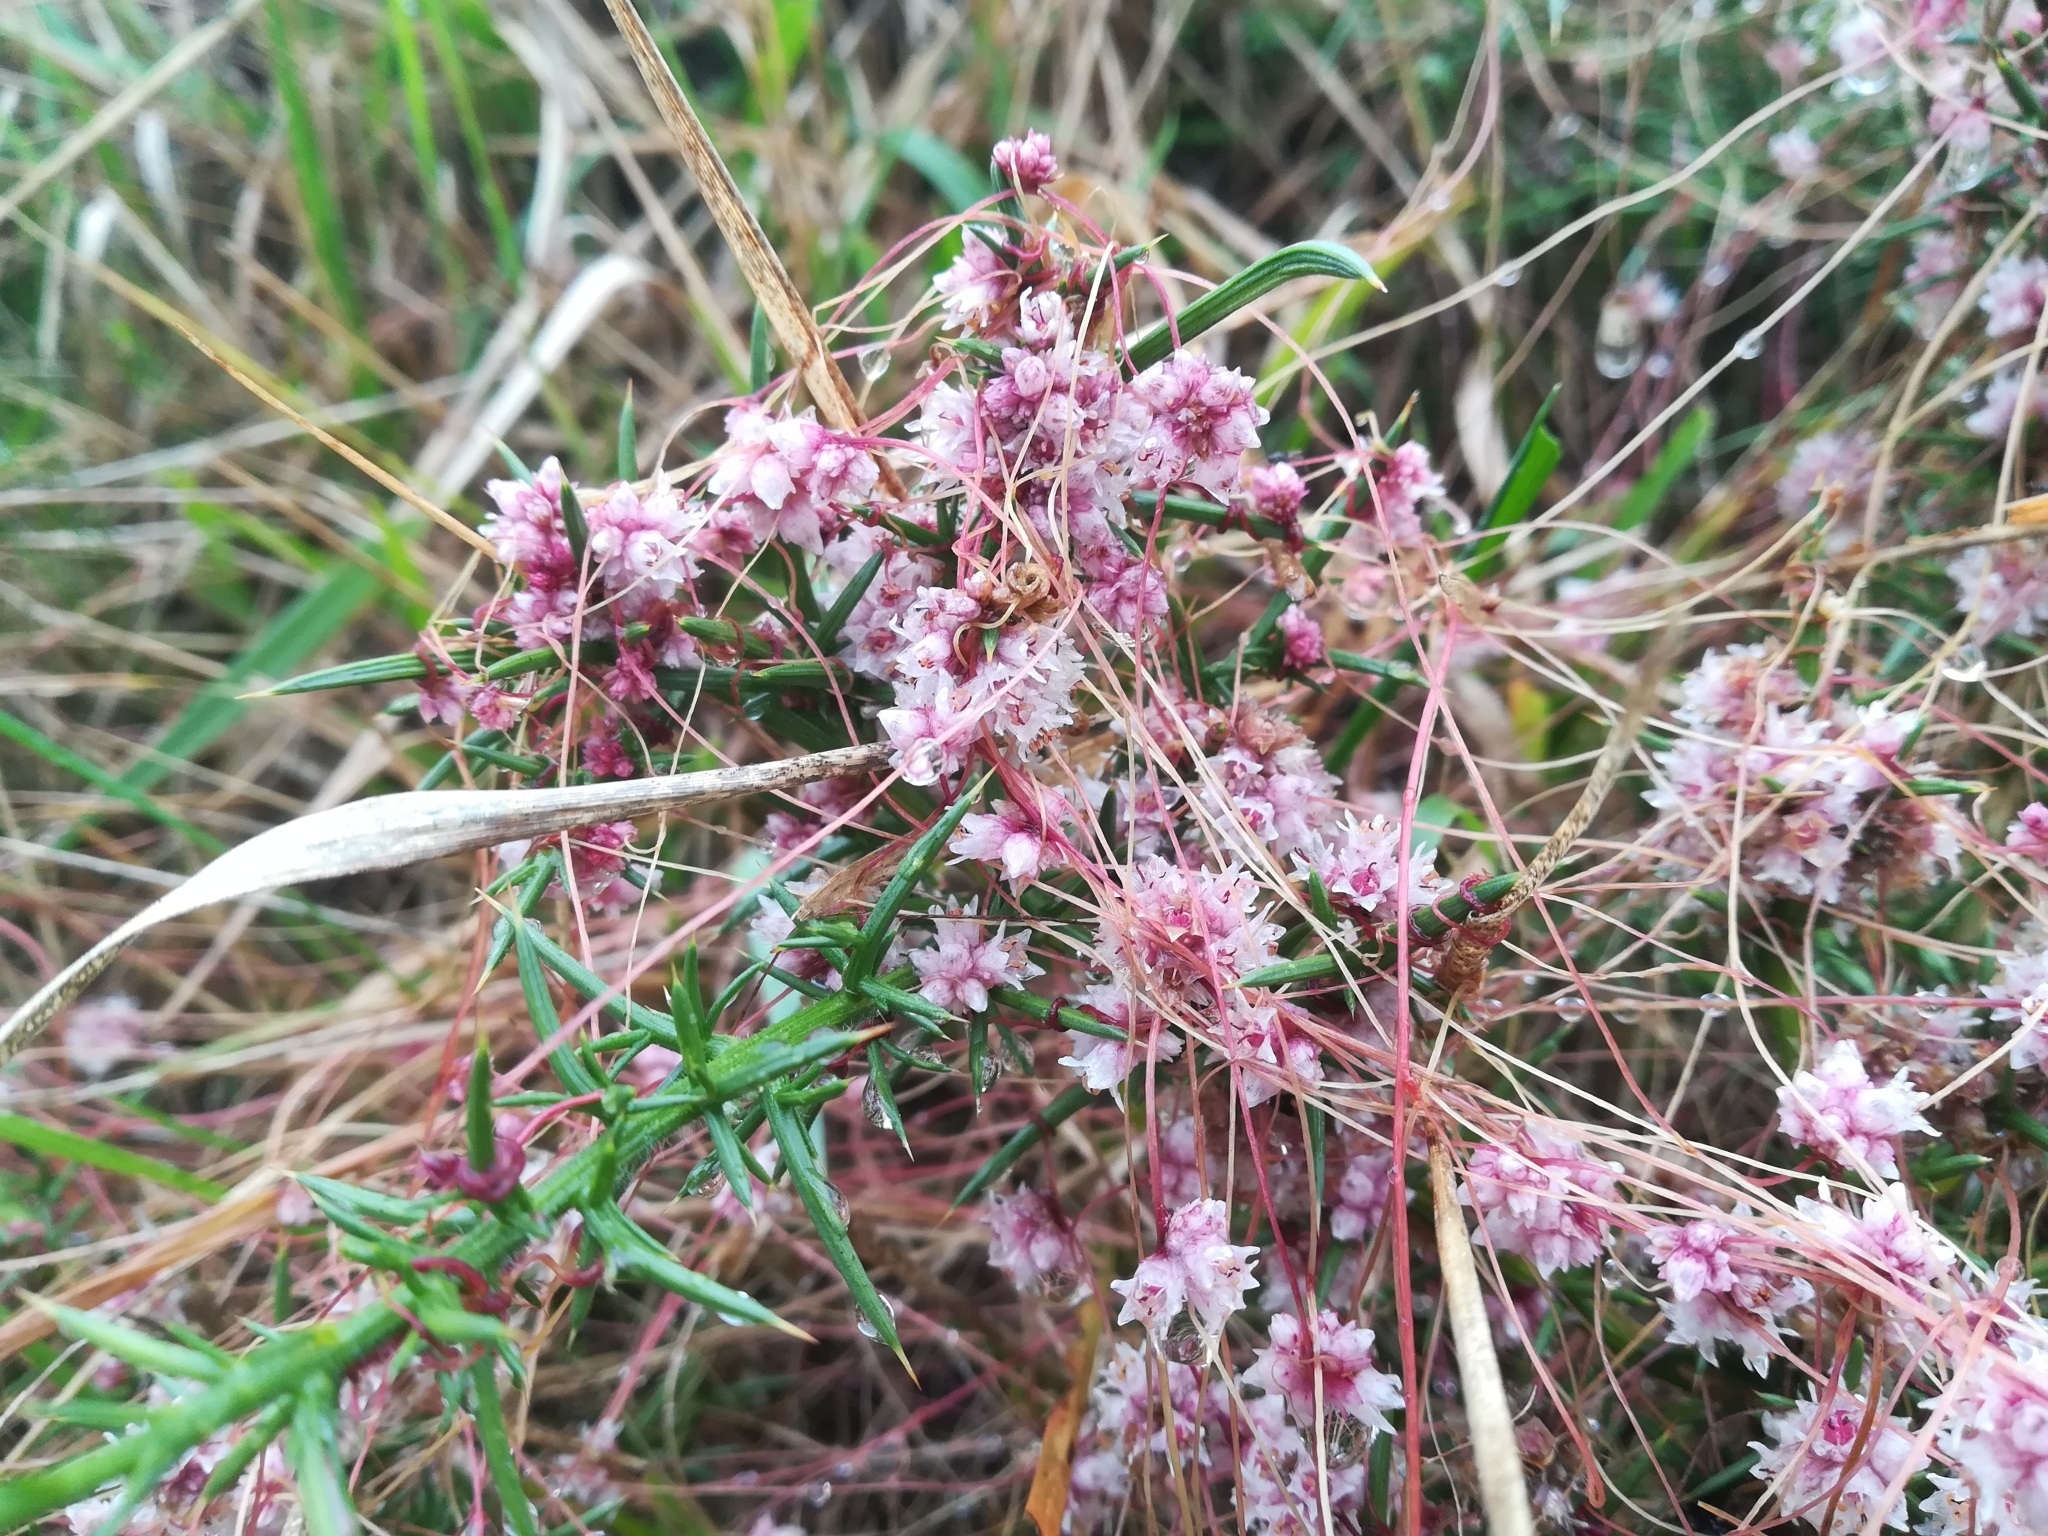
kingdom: Plantae
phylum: Tracheophyta
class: Magnoliopsida
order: Solanales
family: Convolvulaceae
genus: Cuscuta
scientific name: Cuscuta epithymum
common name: Clover dodder
